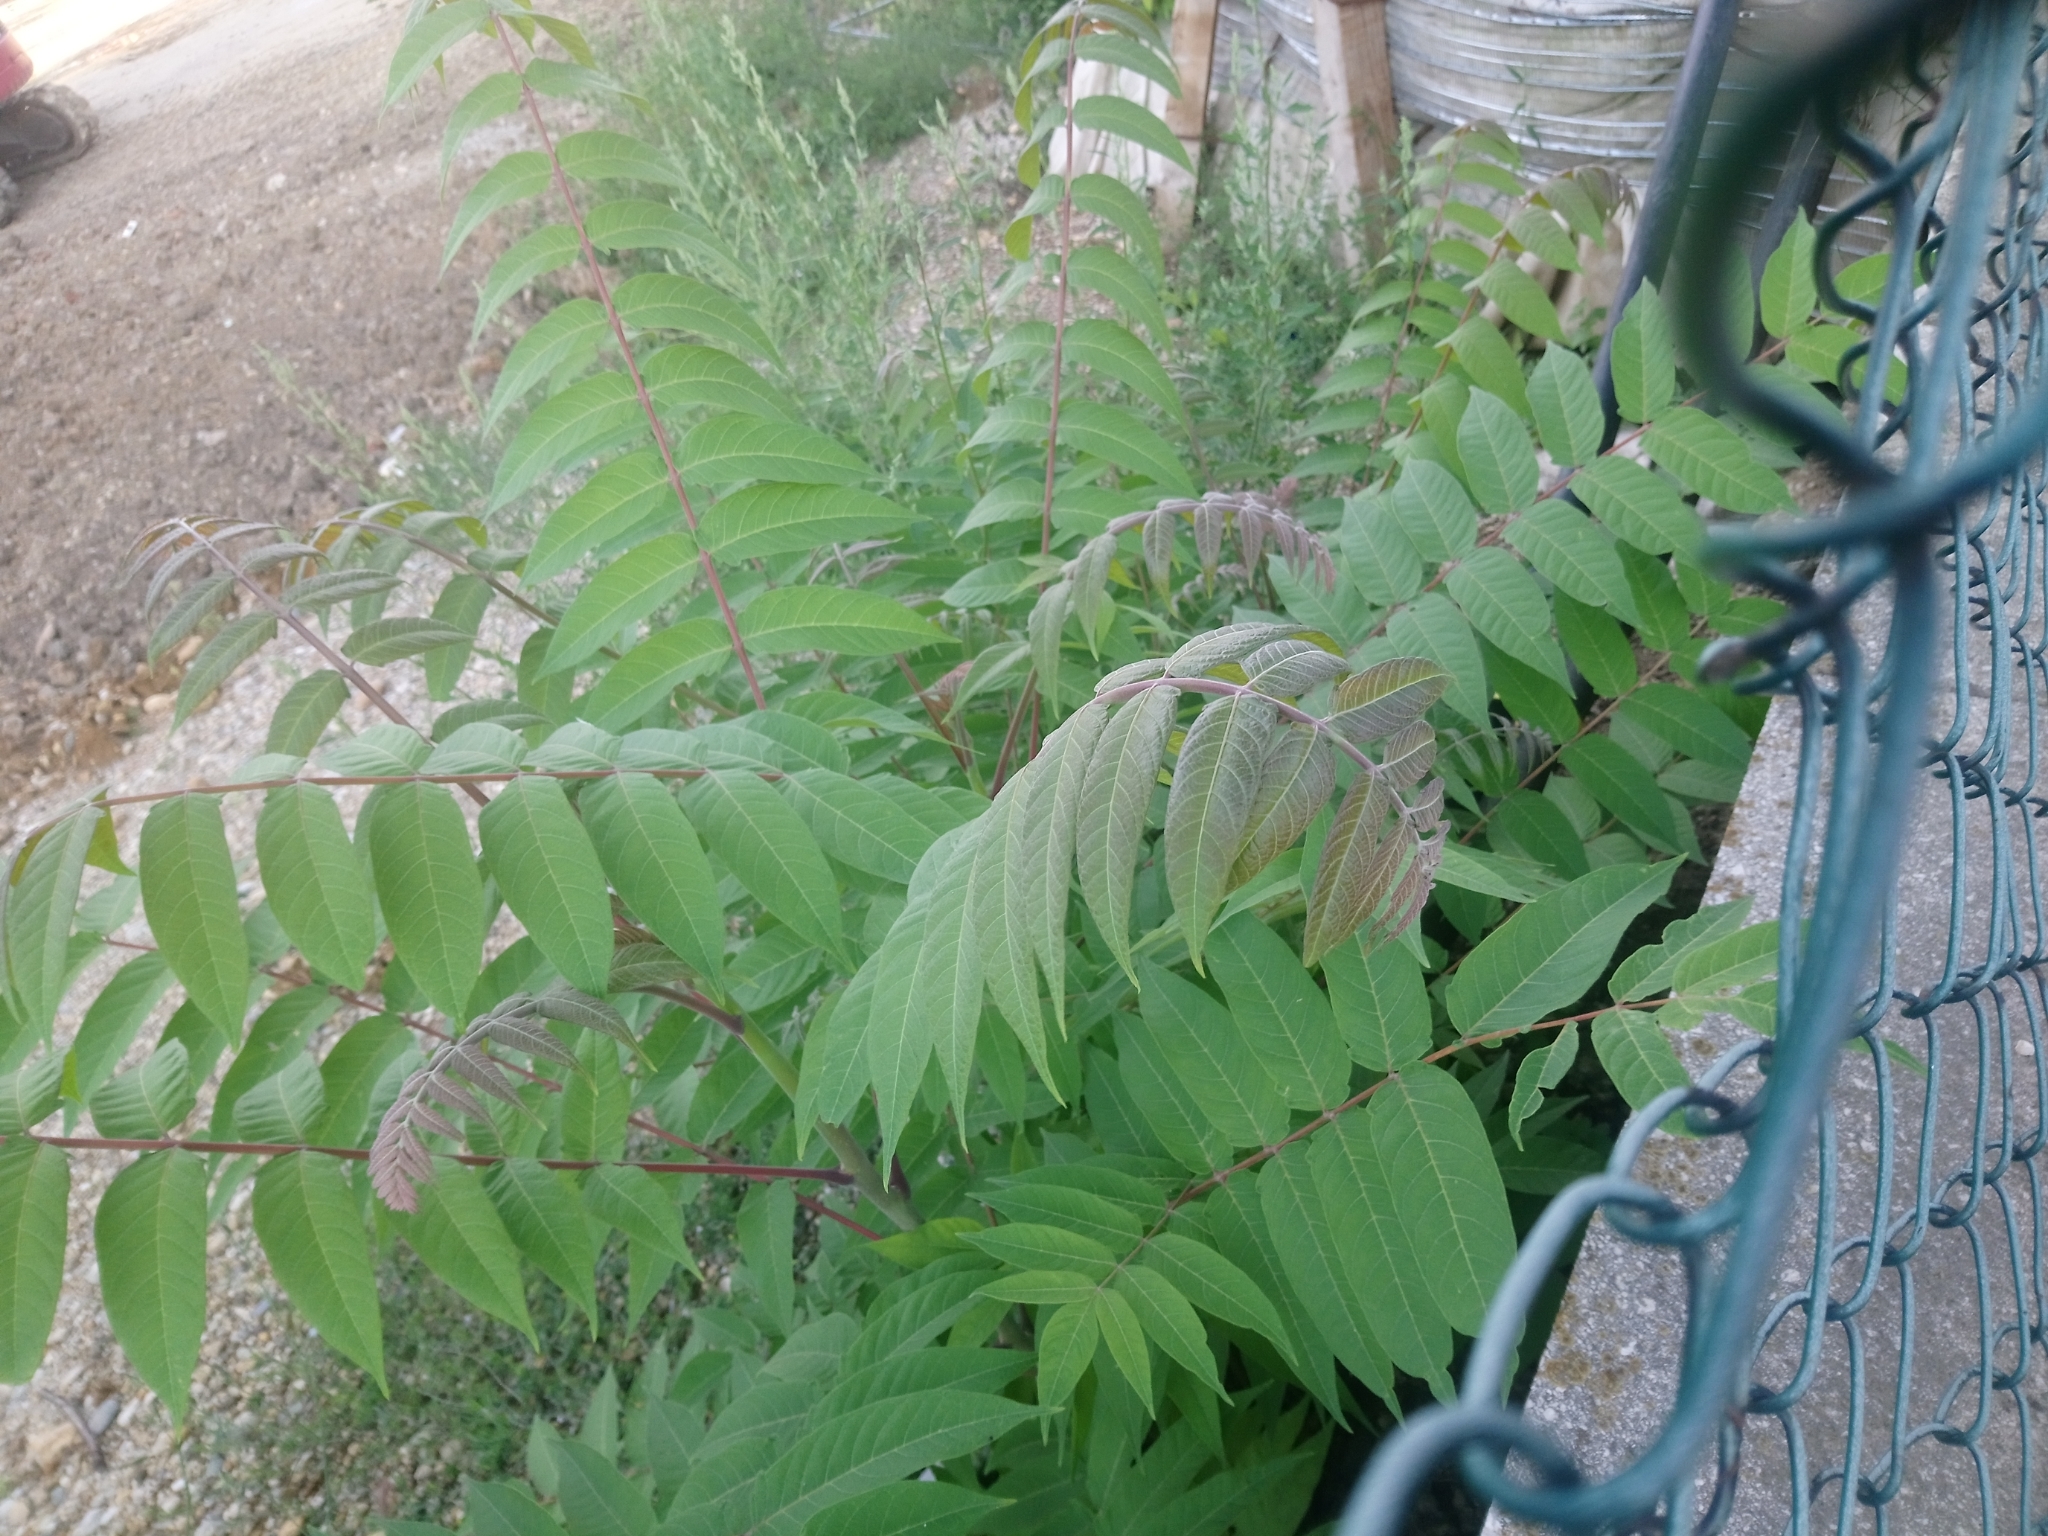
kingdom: Plantae
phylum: Tracheophyta
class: Magnoliopsida
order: Sapindales
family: Simaroubaceae
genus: Ailanthus
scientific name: Ailanthus altissima
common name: Tree-of-heaven
